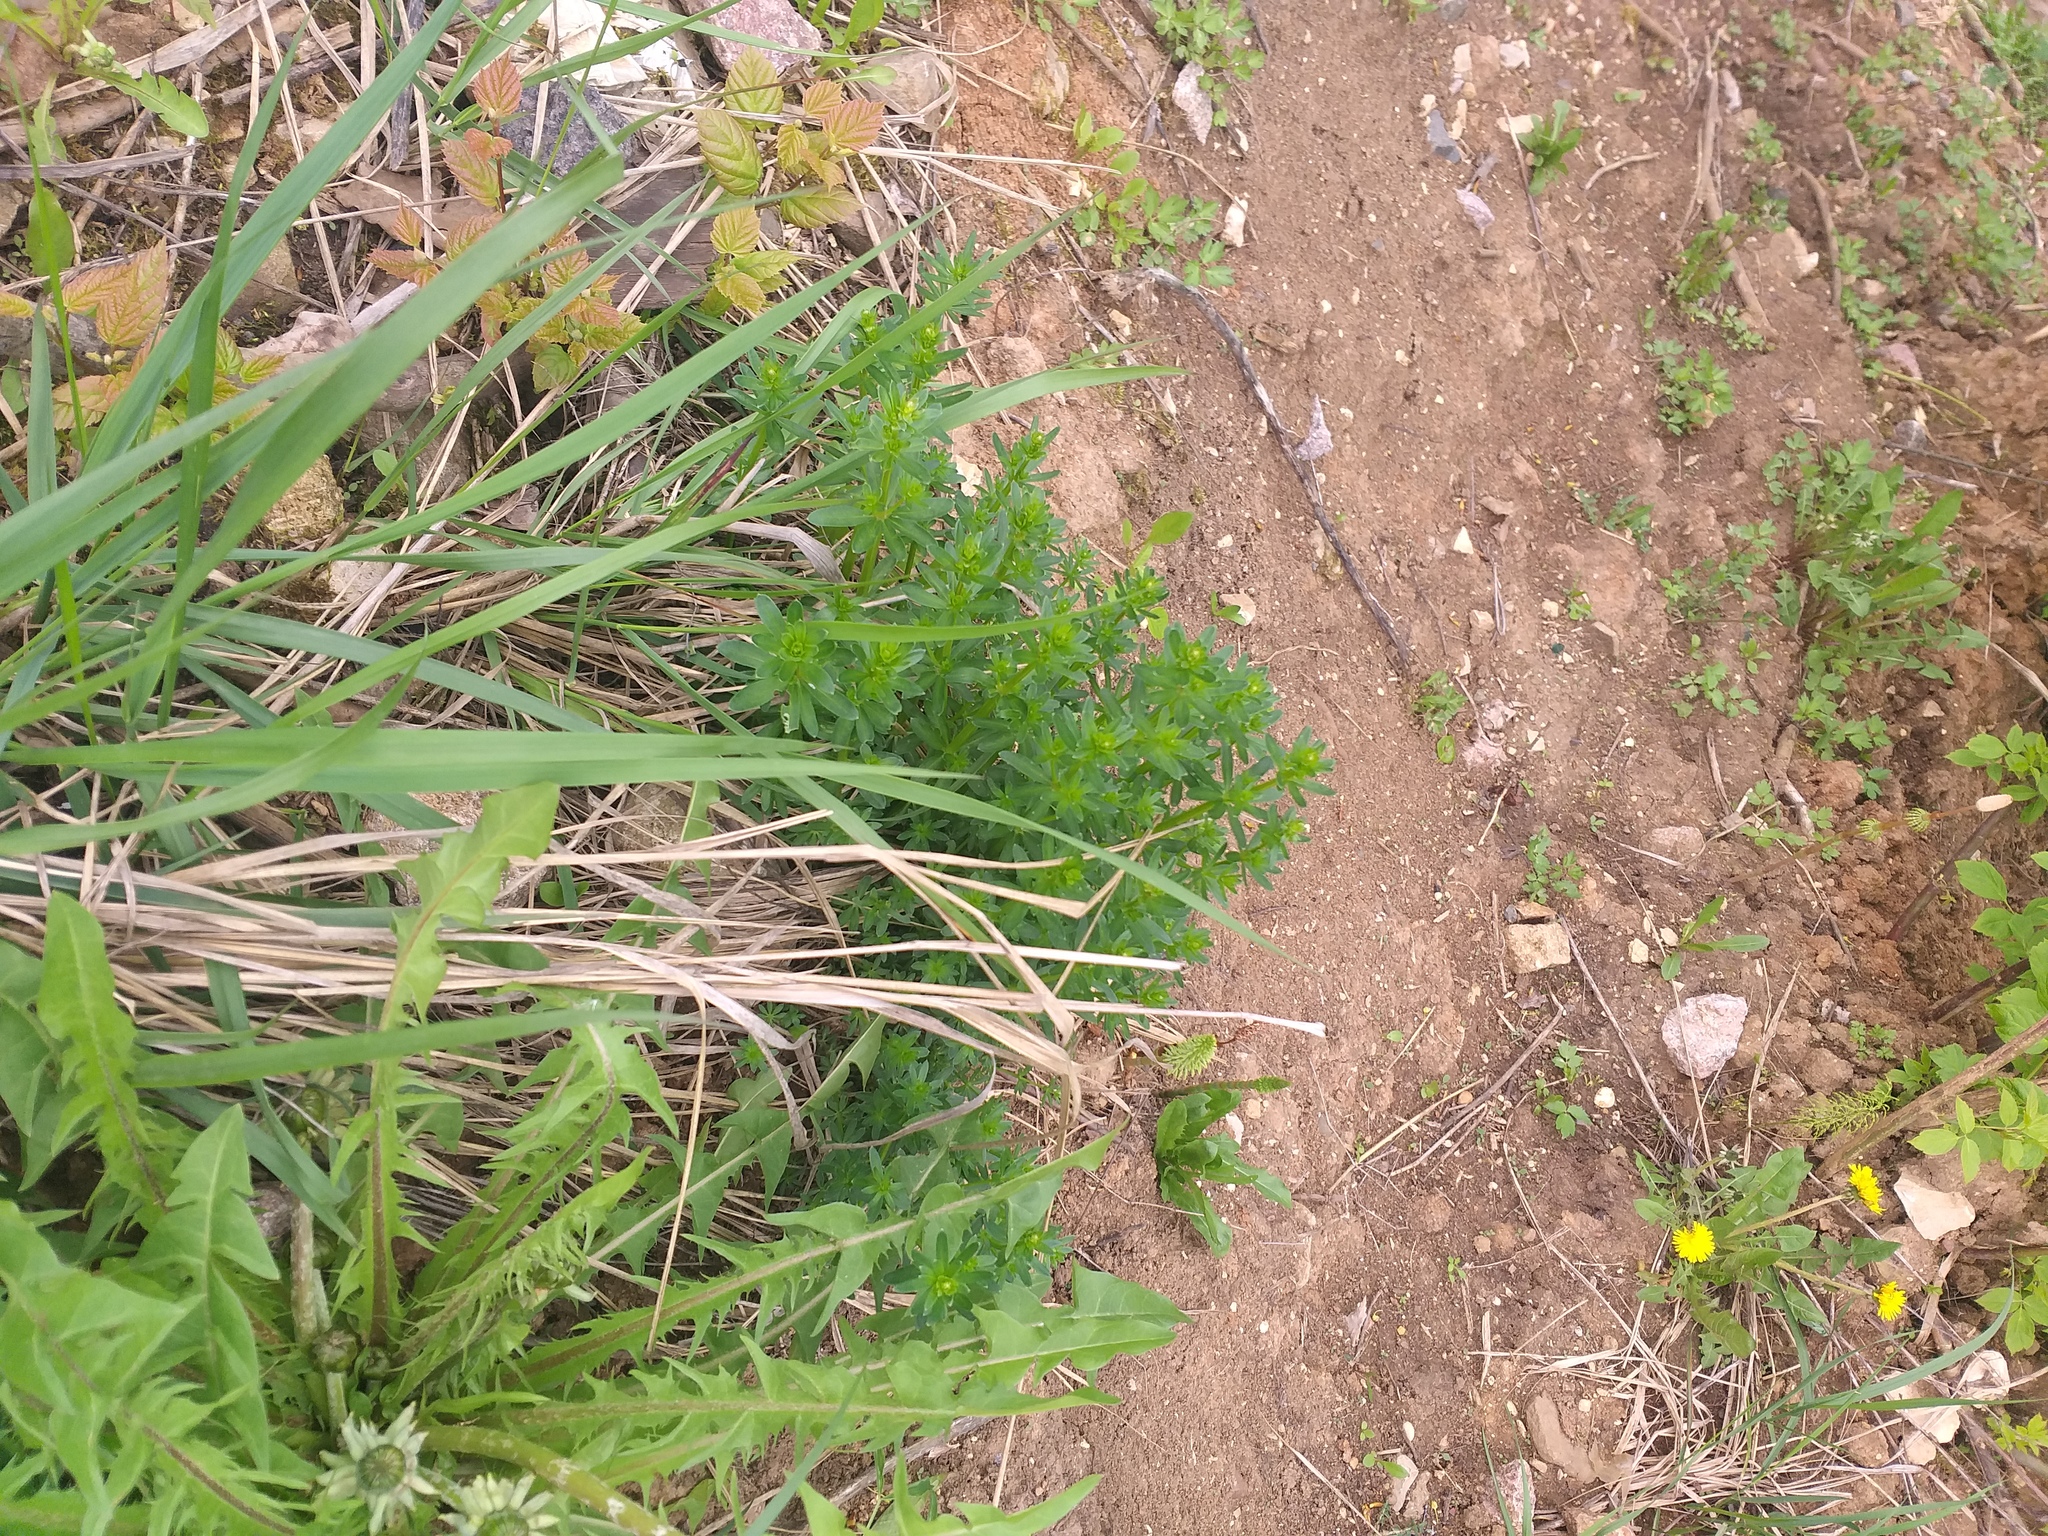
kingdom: Plantae
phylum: Tracheophyta
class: Magnoliopsida
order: Gentianales
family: Rubiaceae
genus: Galium
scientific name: Galium mollugo
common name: Hedge bedstraw
